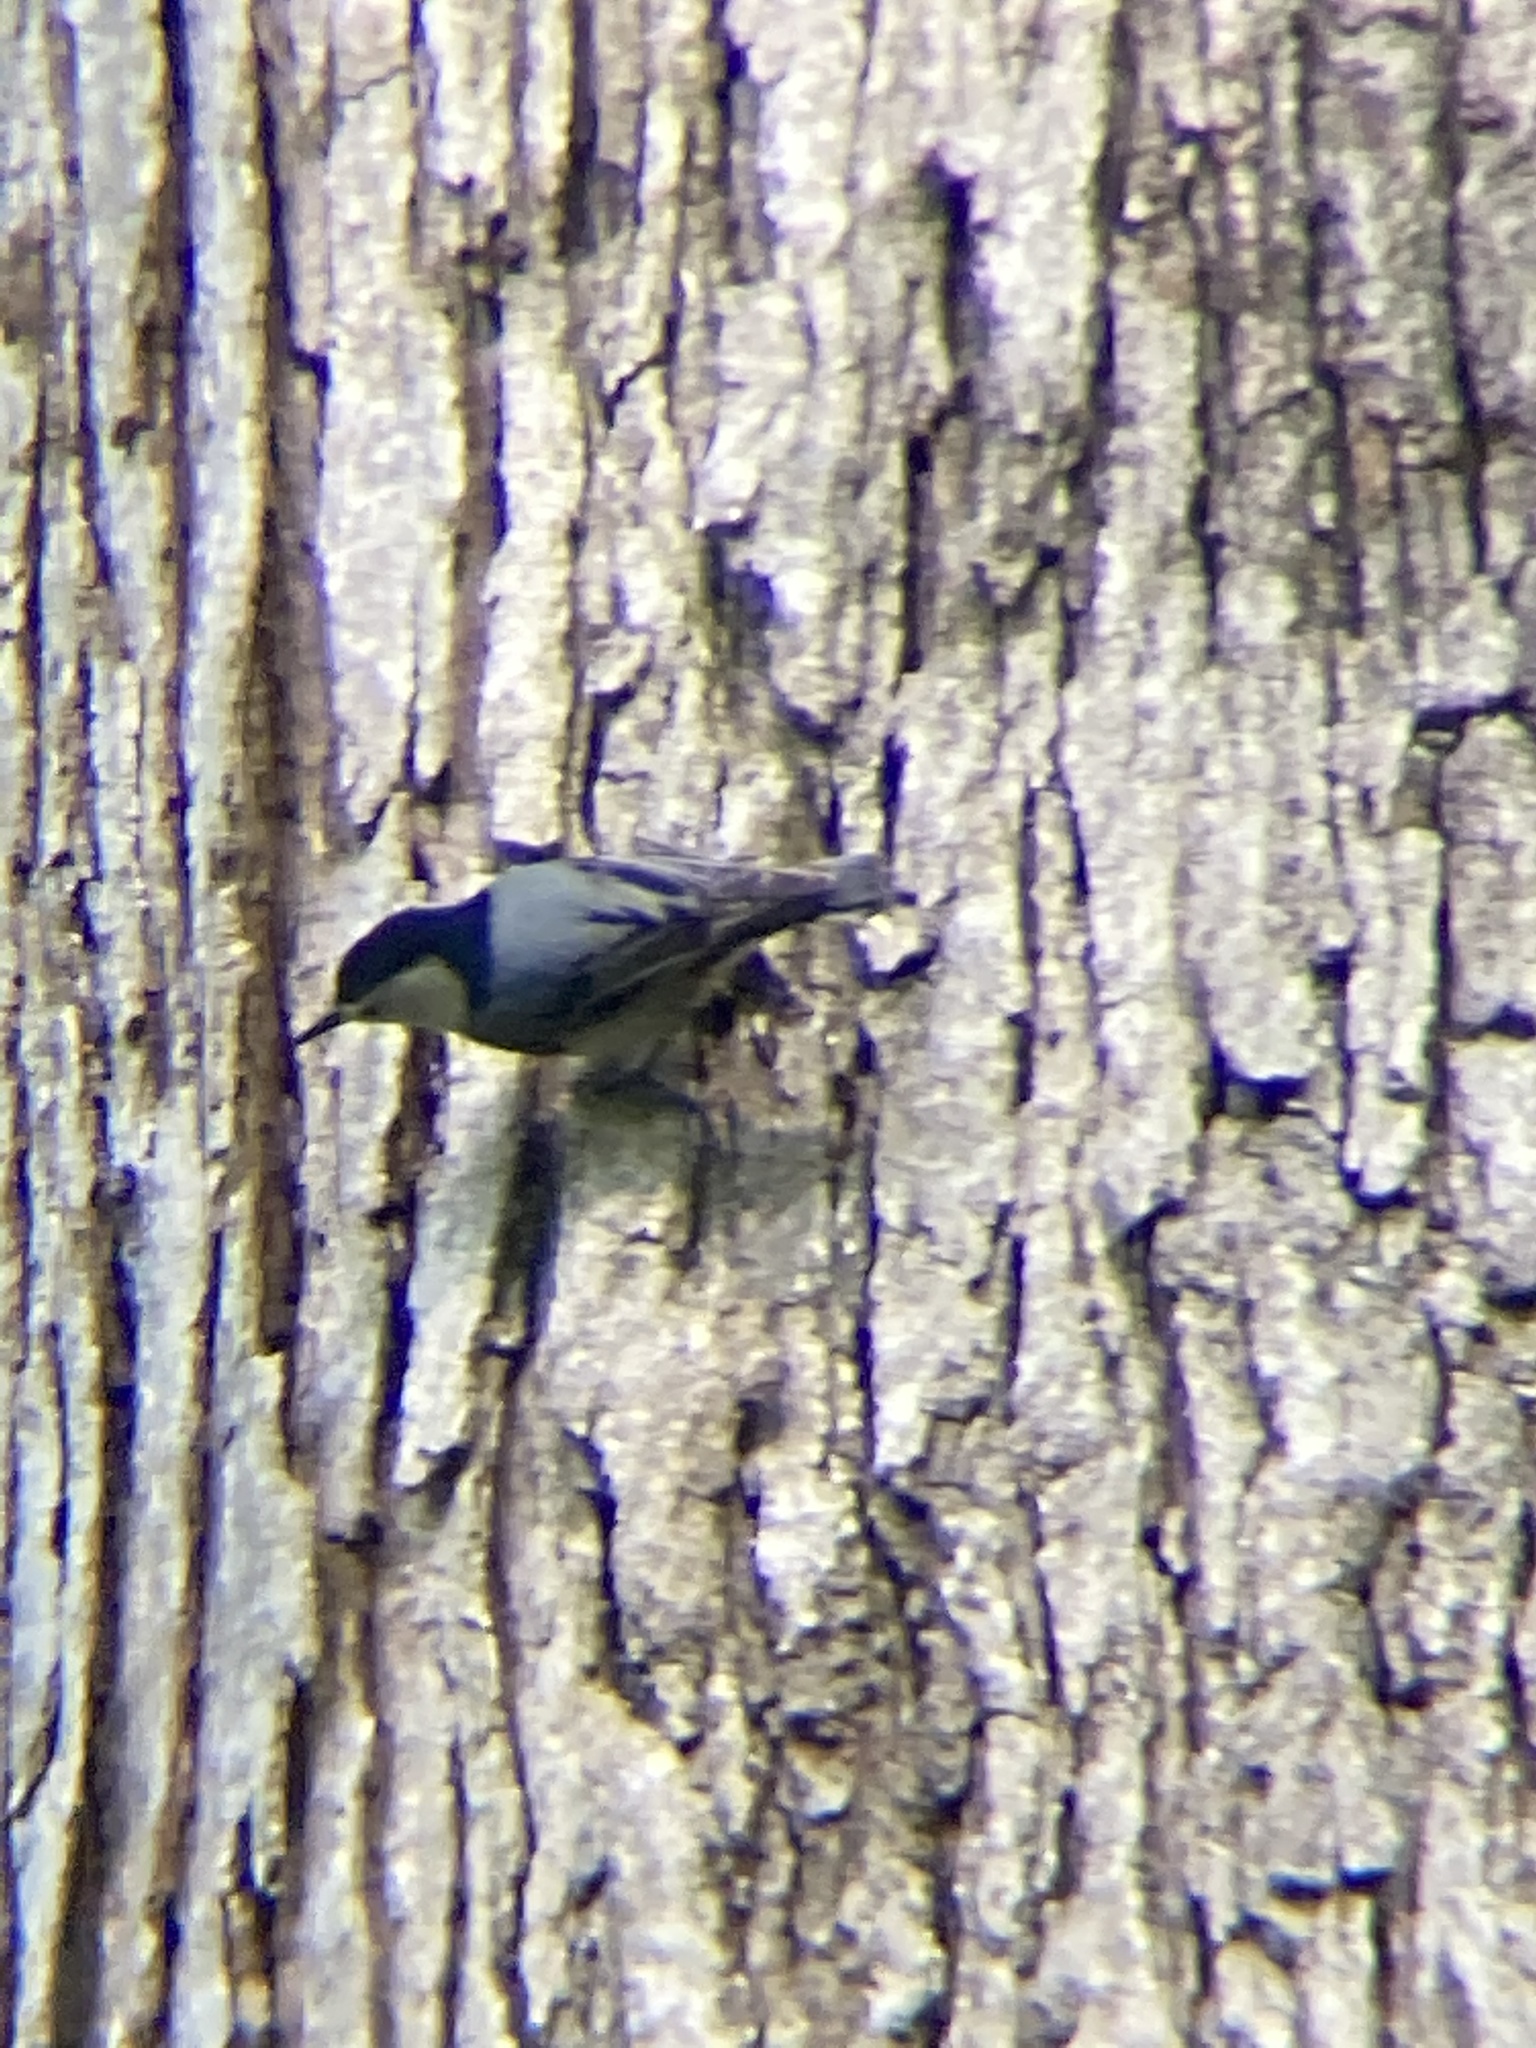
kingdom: Animalia
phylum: Chordata
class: Aves
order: Passeriformes
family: Sittidae
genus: Sitta
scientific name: Sitta carolinensis
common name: White-breasted nuthatch
